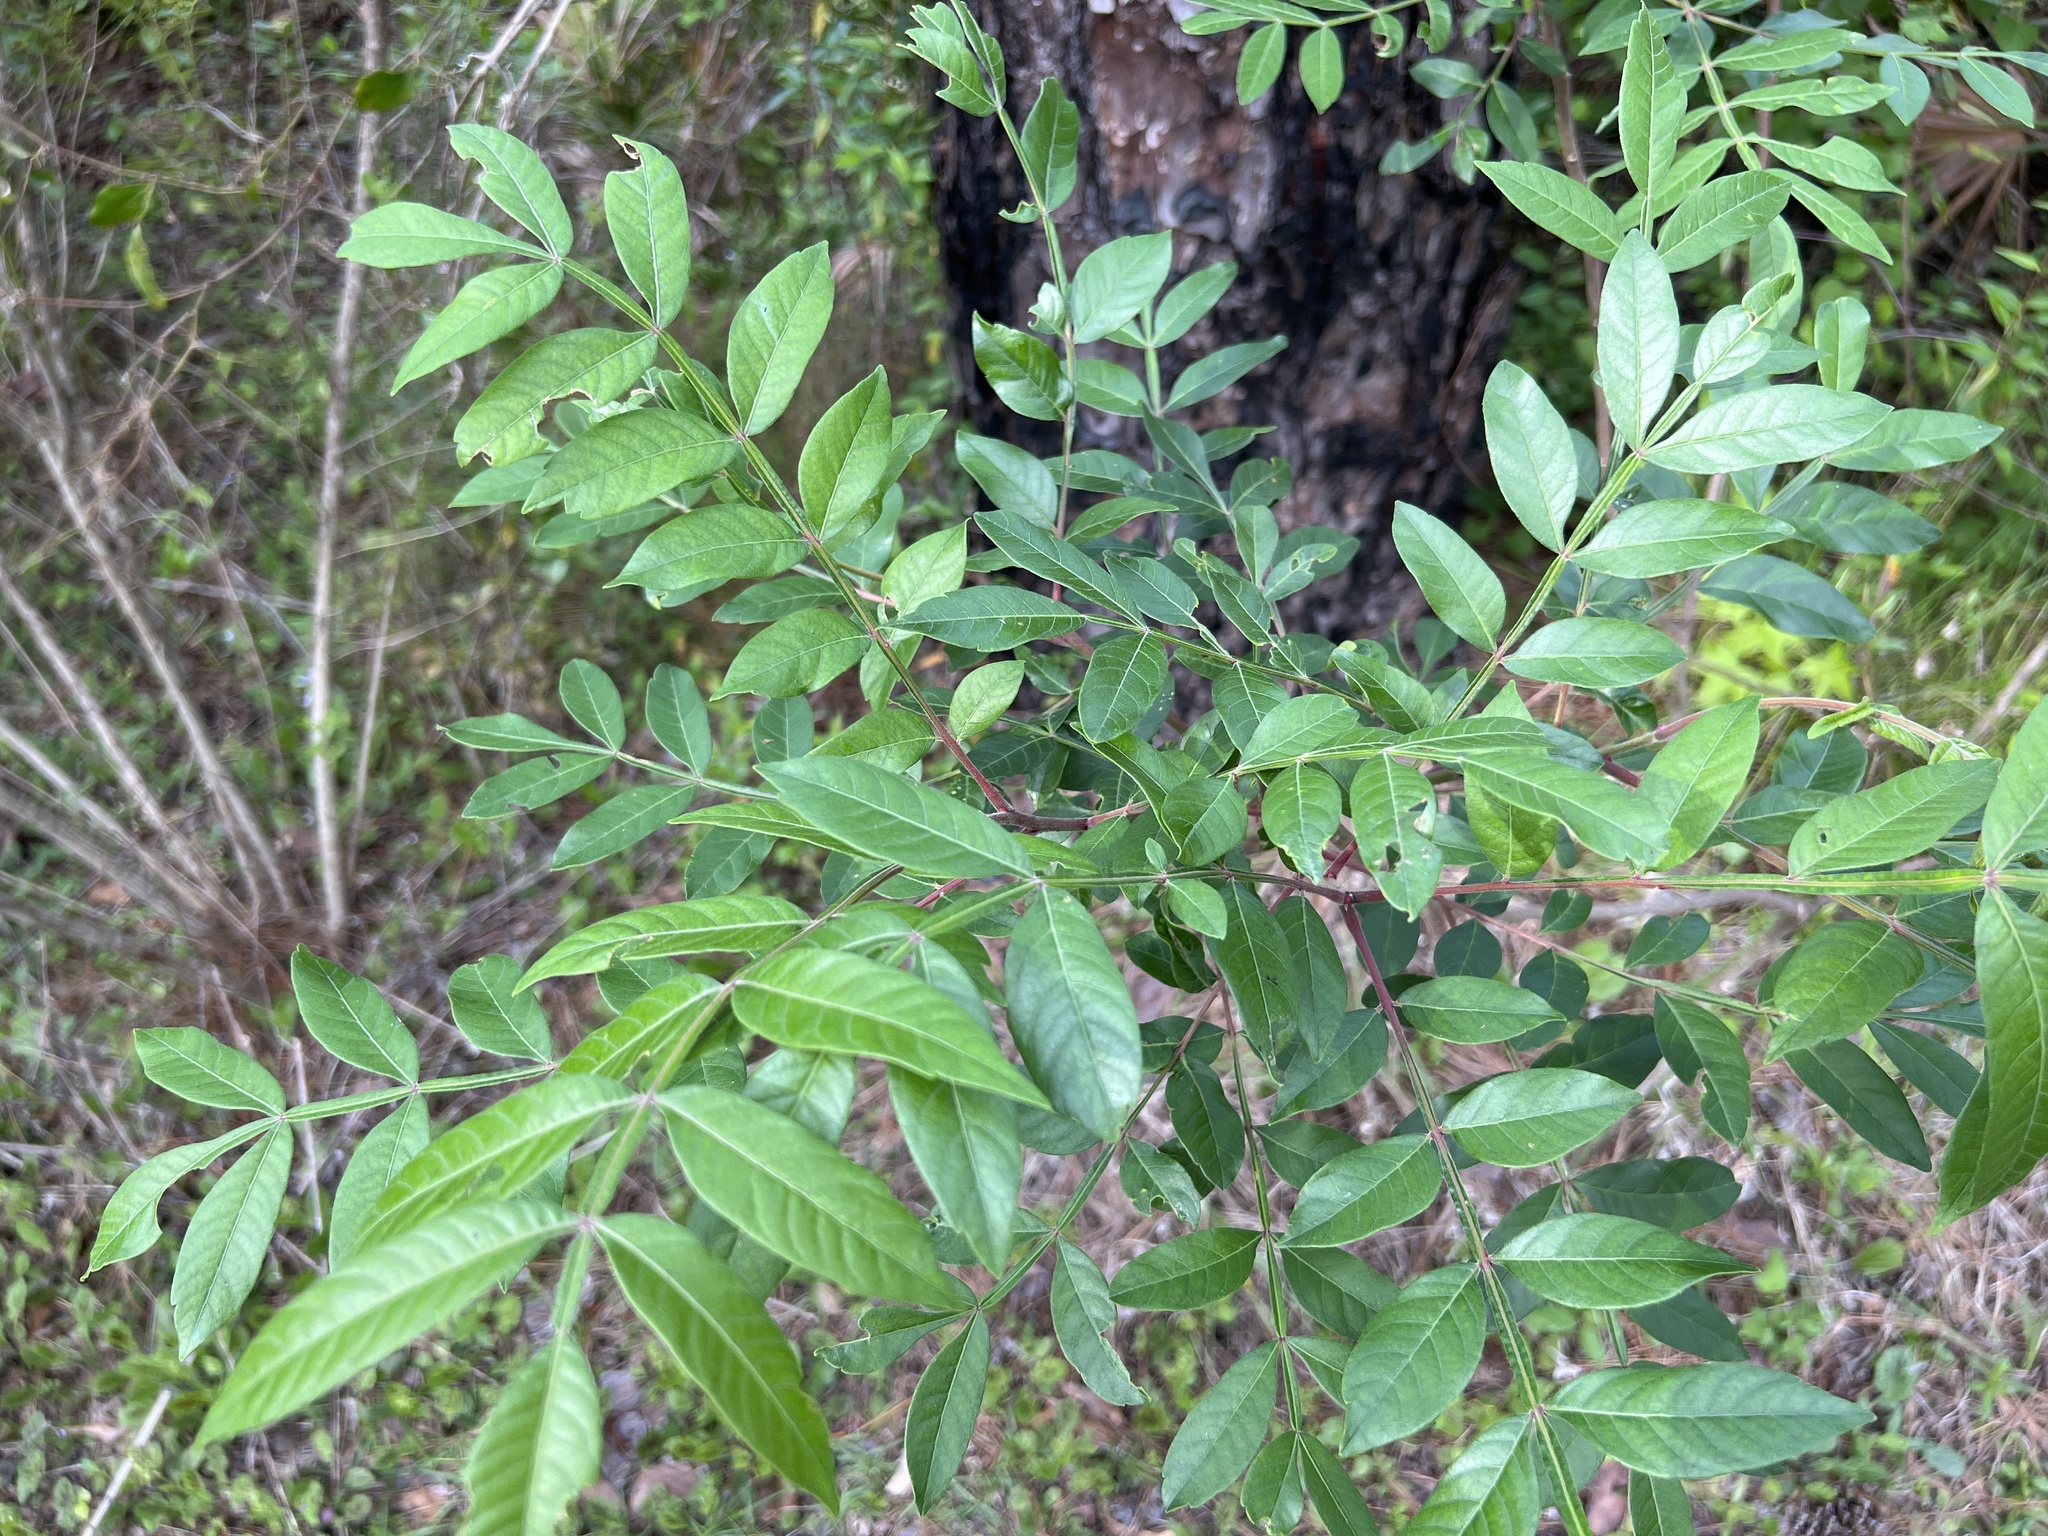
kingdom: Plantae
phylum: Tracheophyta
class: Magnoliopsida
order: Sapindales
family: Anacardiaceae
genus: Rhus
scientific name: Rhus copallina
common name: Shining sumac
